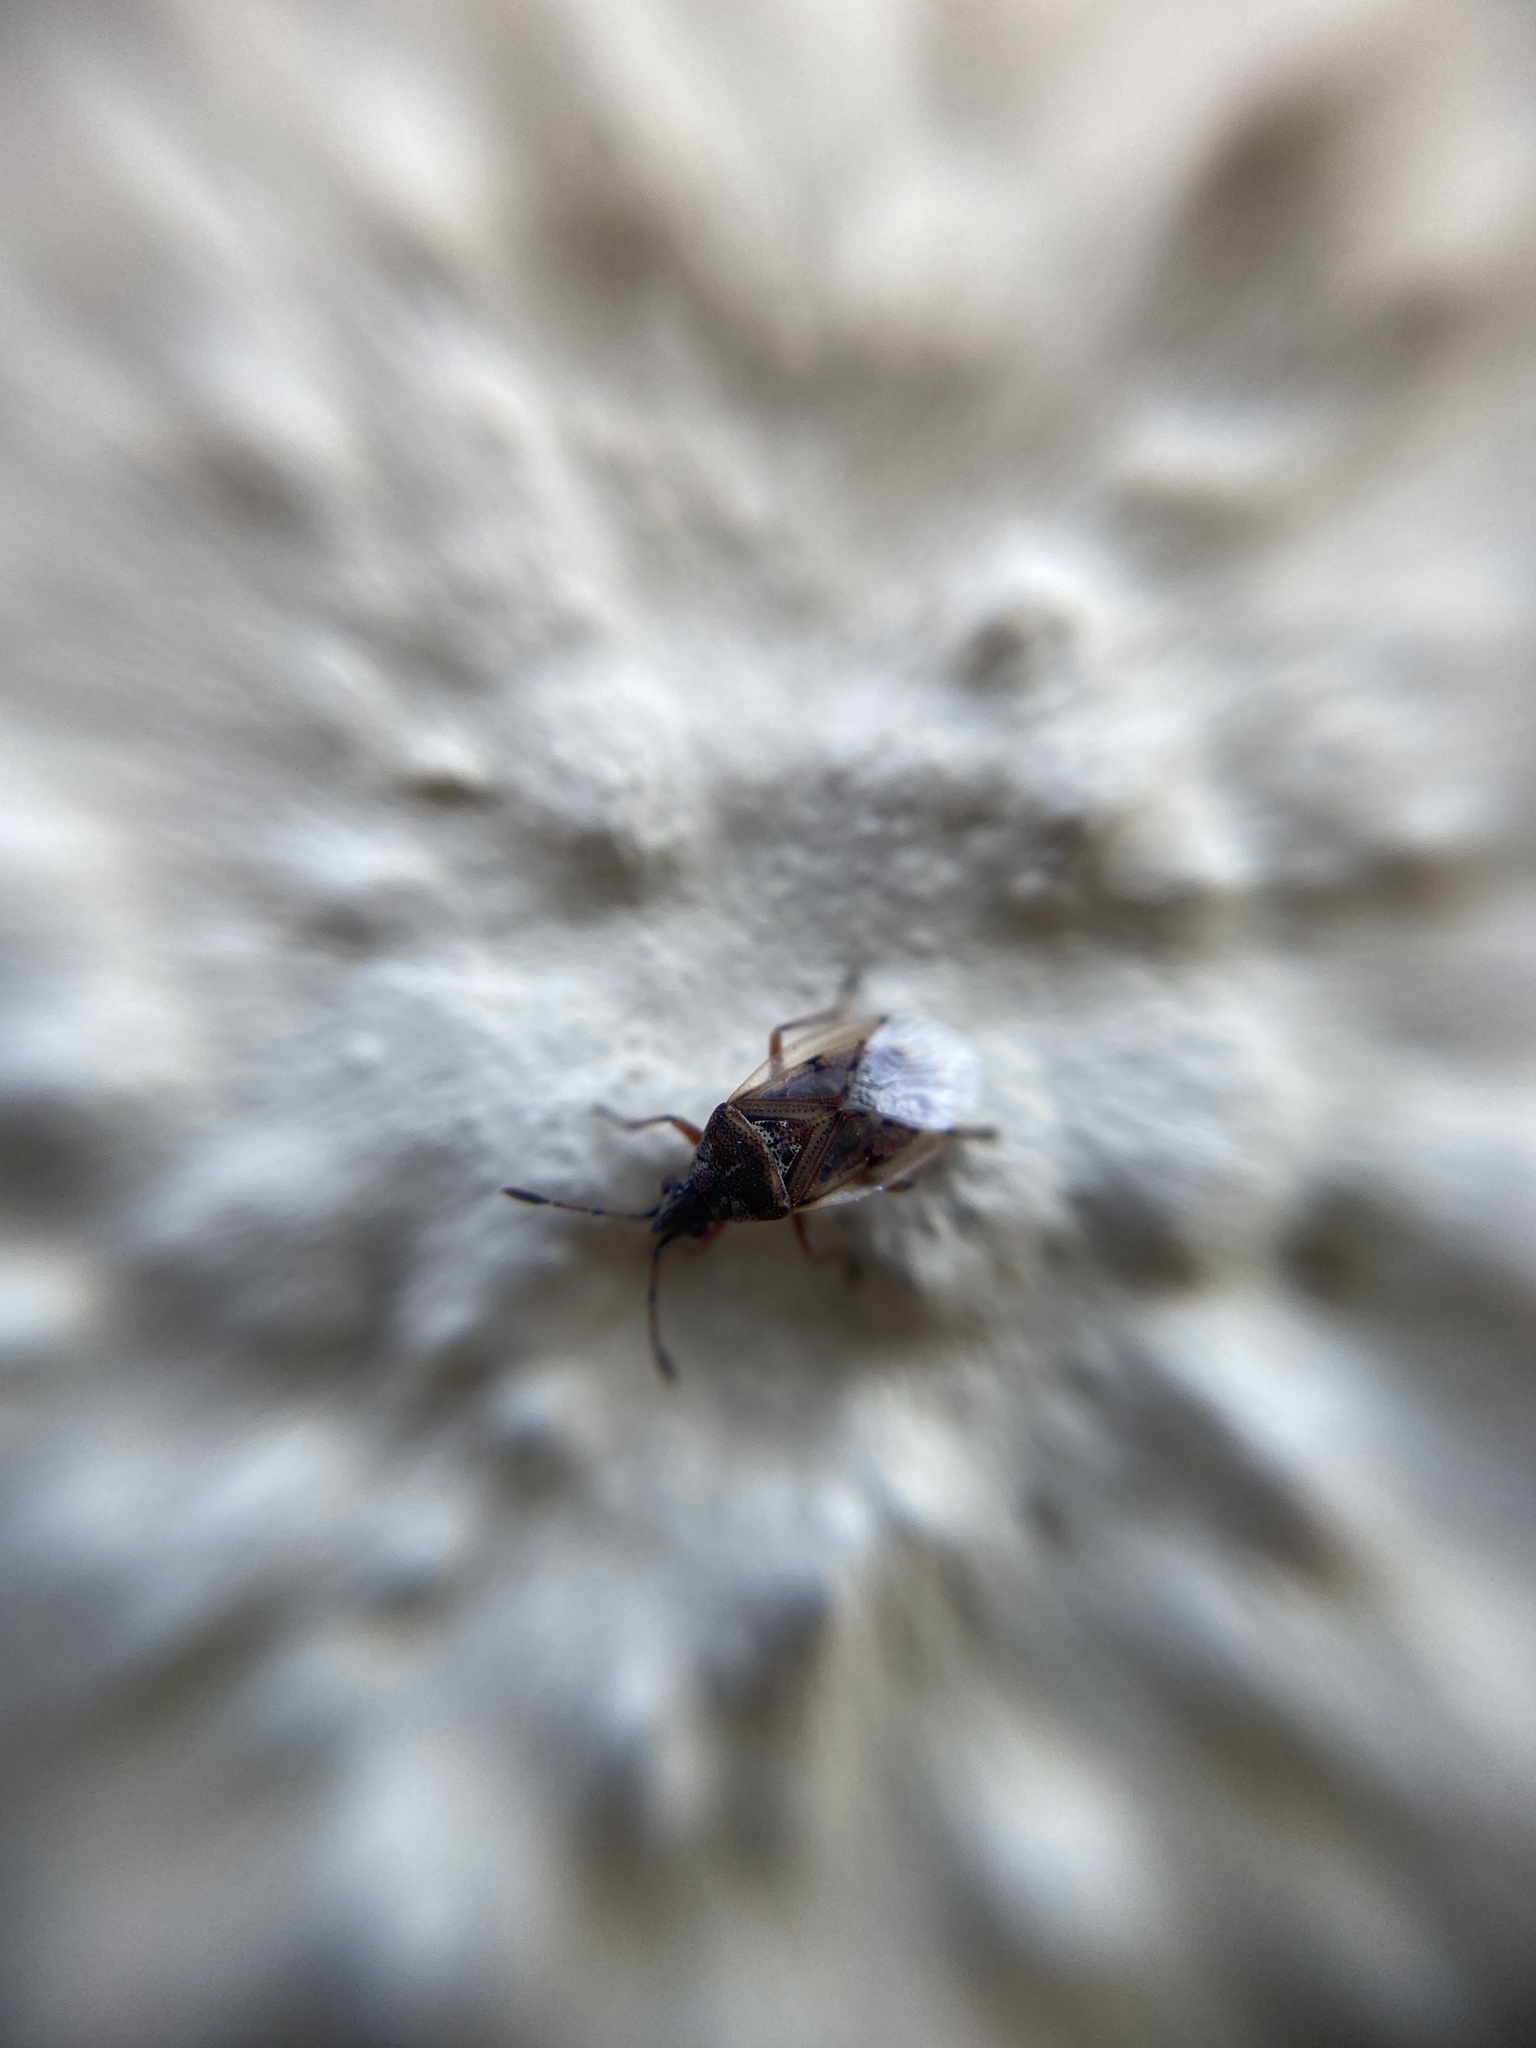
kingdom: Animalia
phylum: Arthropoda
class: Insecta
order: Hemiptera
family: Lygaeidae
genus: Kleidocerys
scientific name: Kleidocerys resedae
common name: Birch catkin bug
